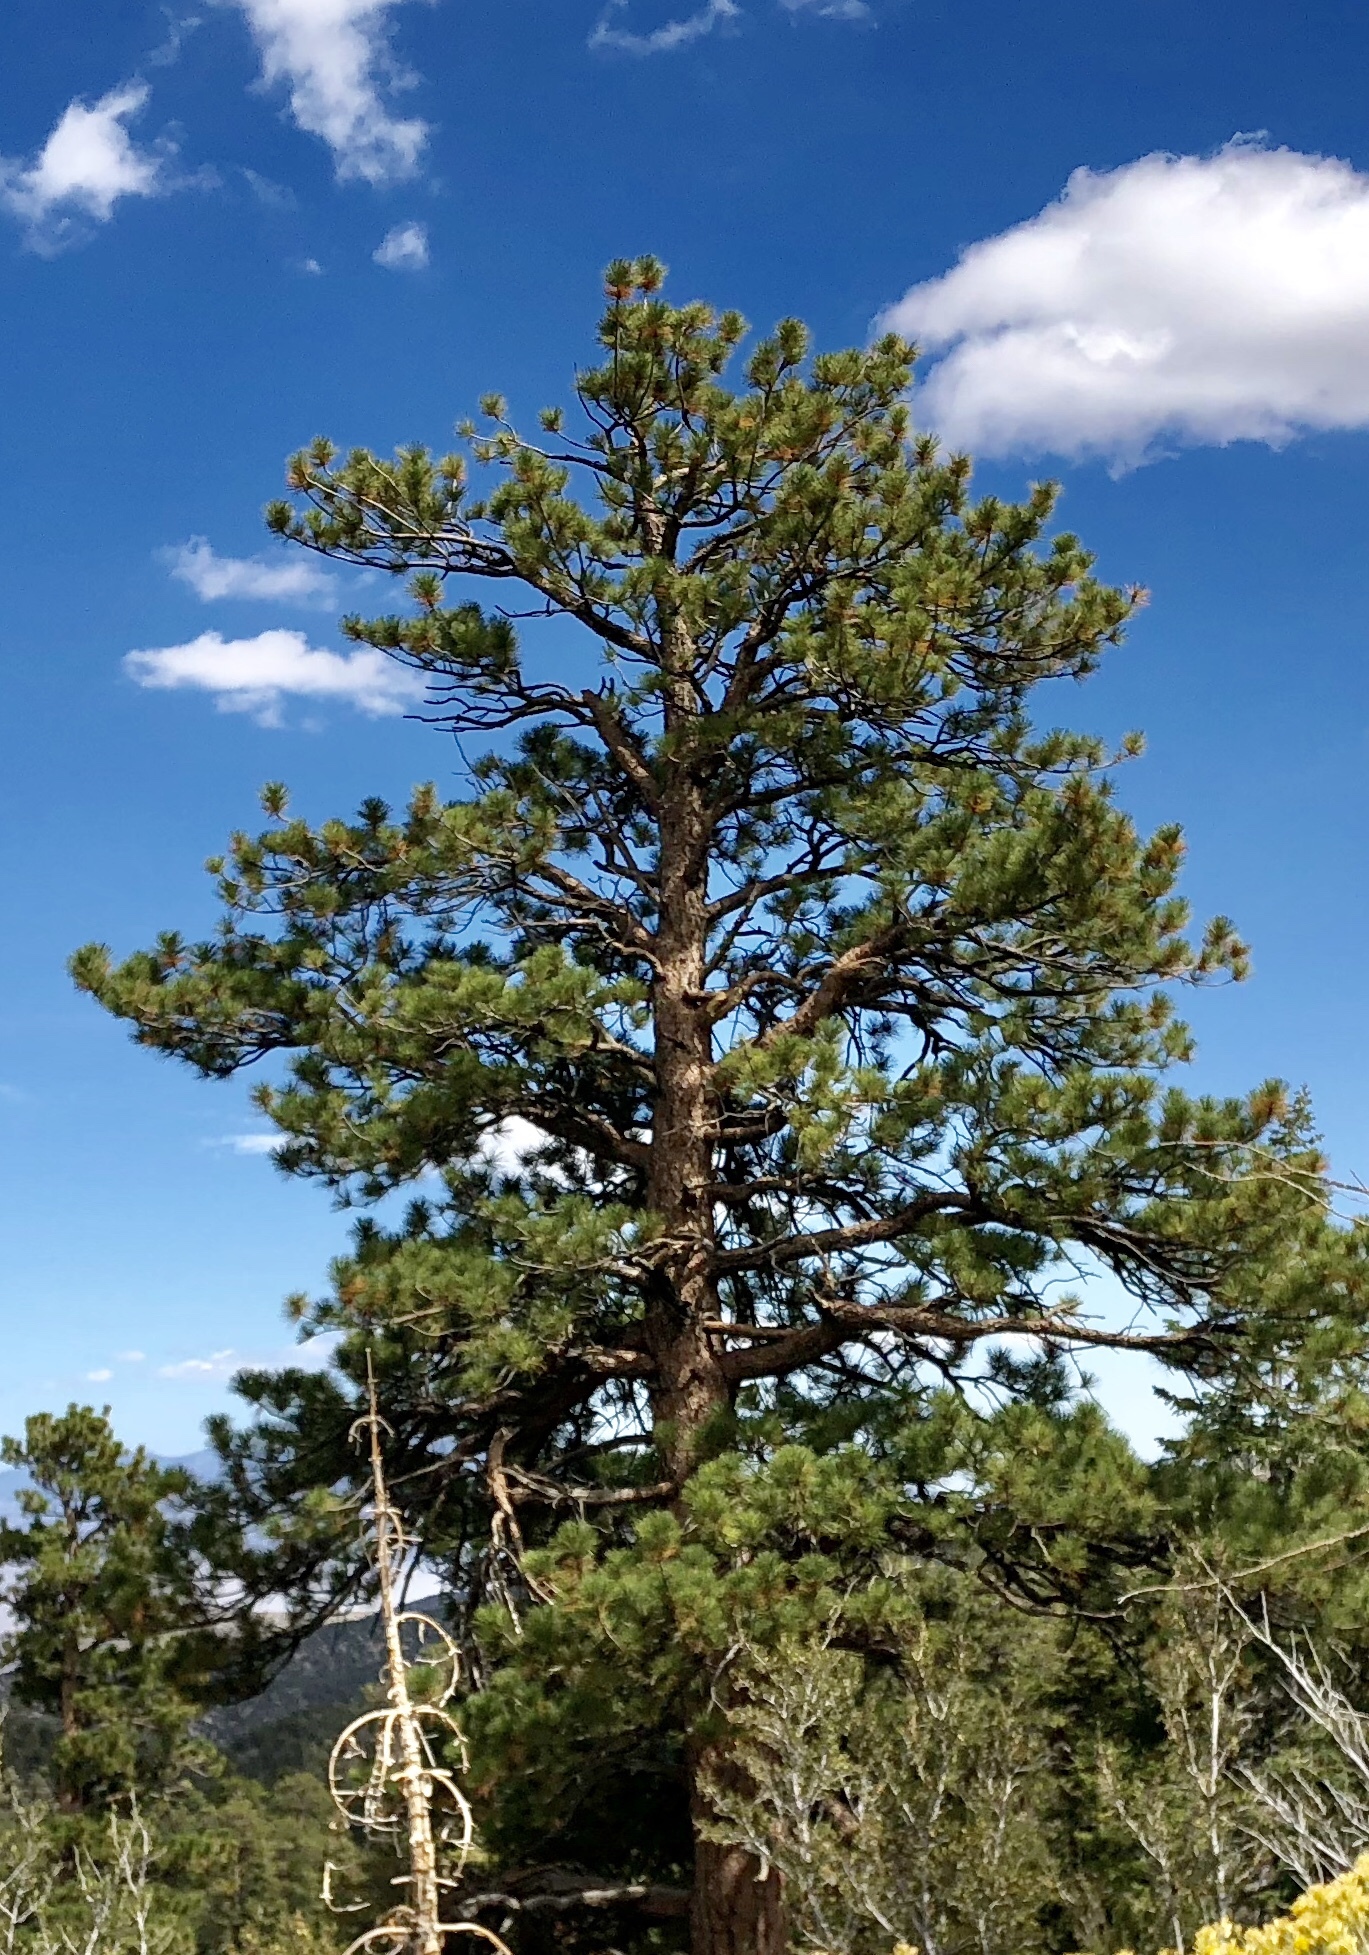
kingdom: Plantae
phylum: Tracheophyta
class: Pinopsida
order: Pinales
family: Pinaceae
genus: Pinus
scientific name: Pinus ponderosa
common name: Western yellow-pine
